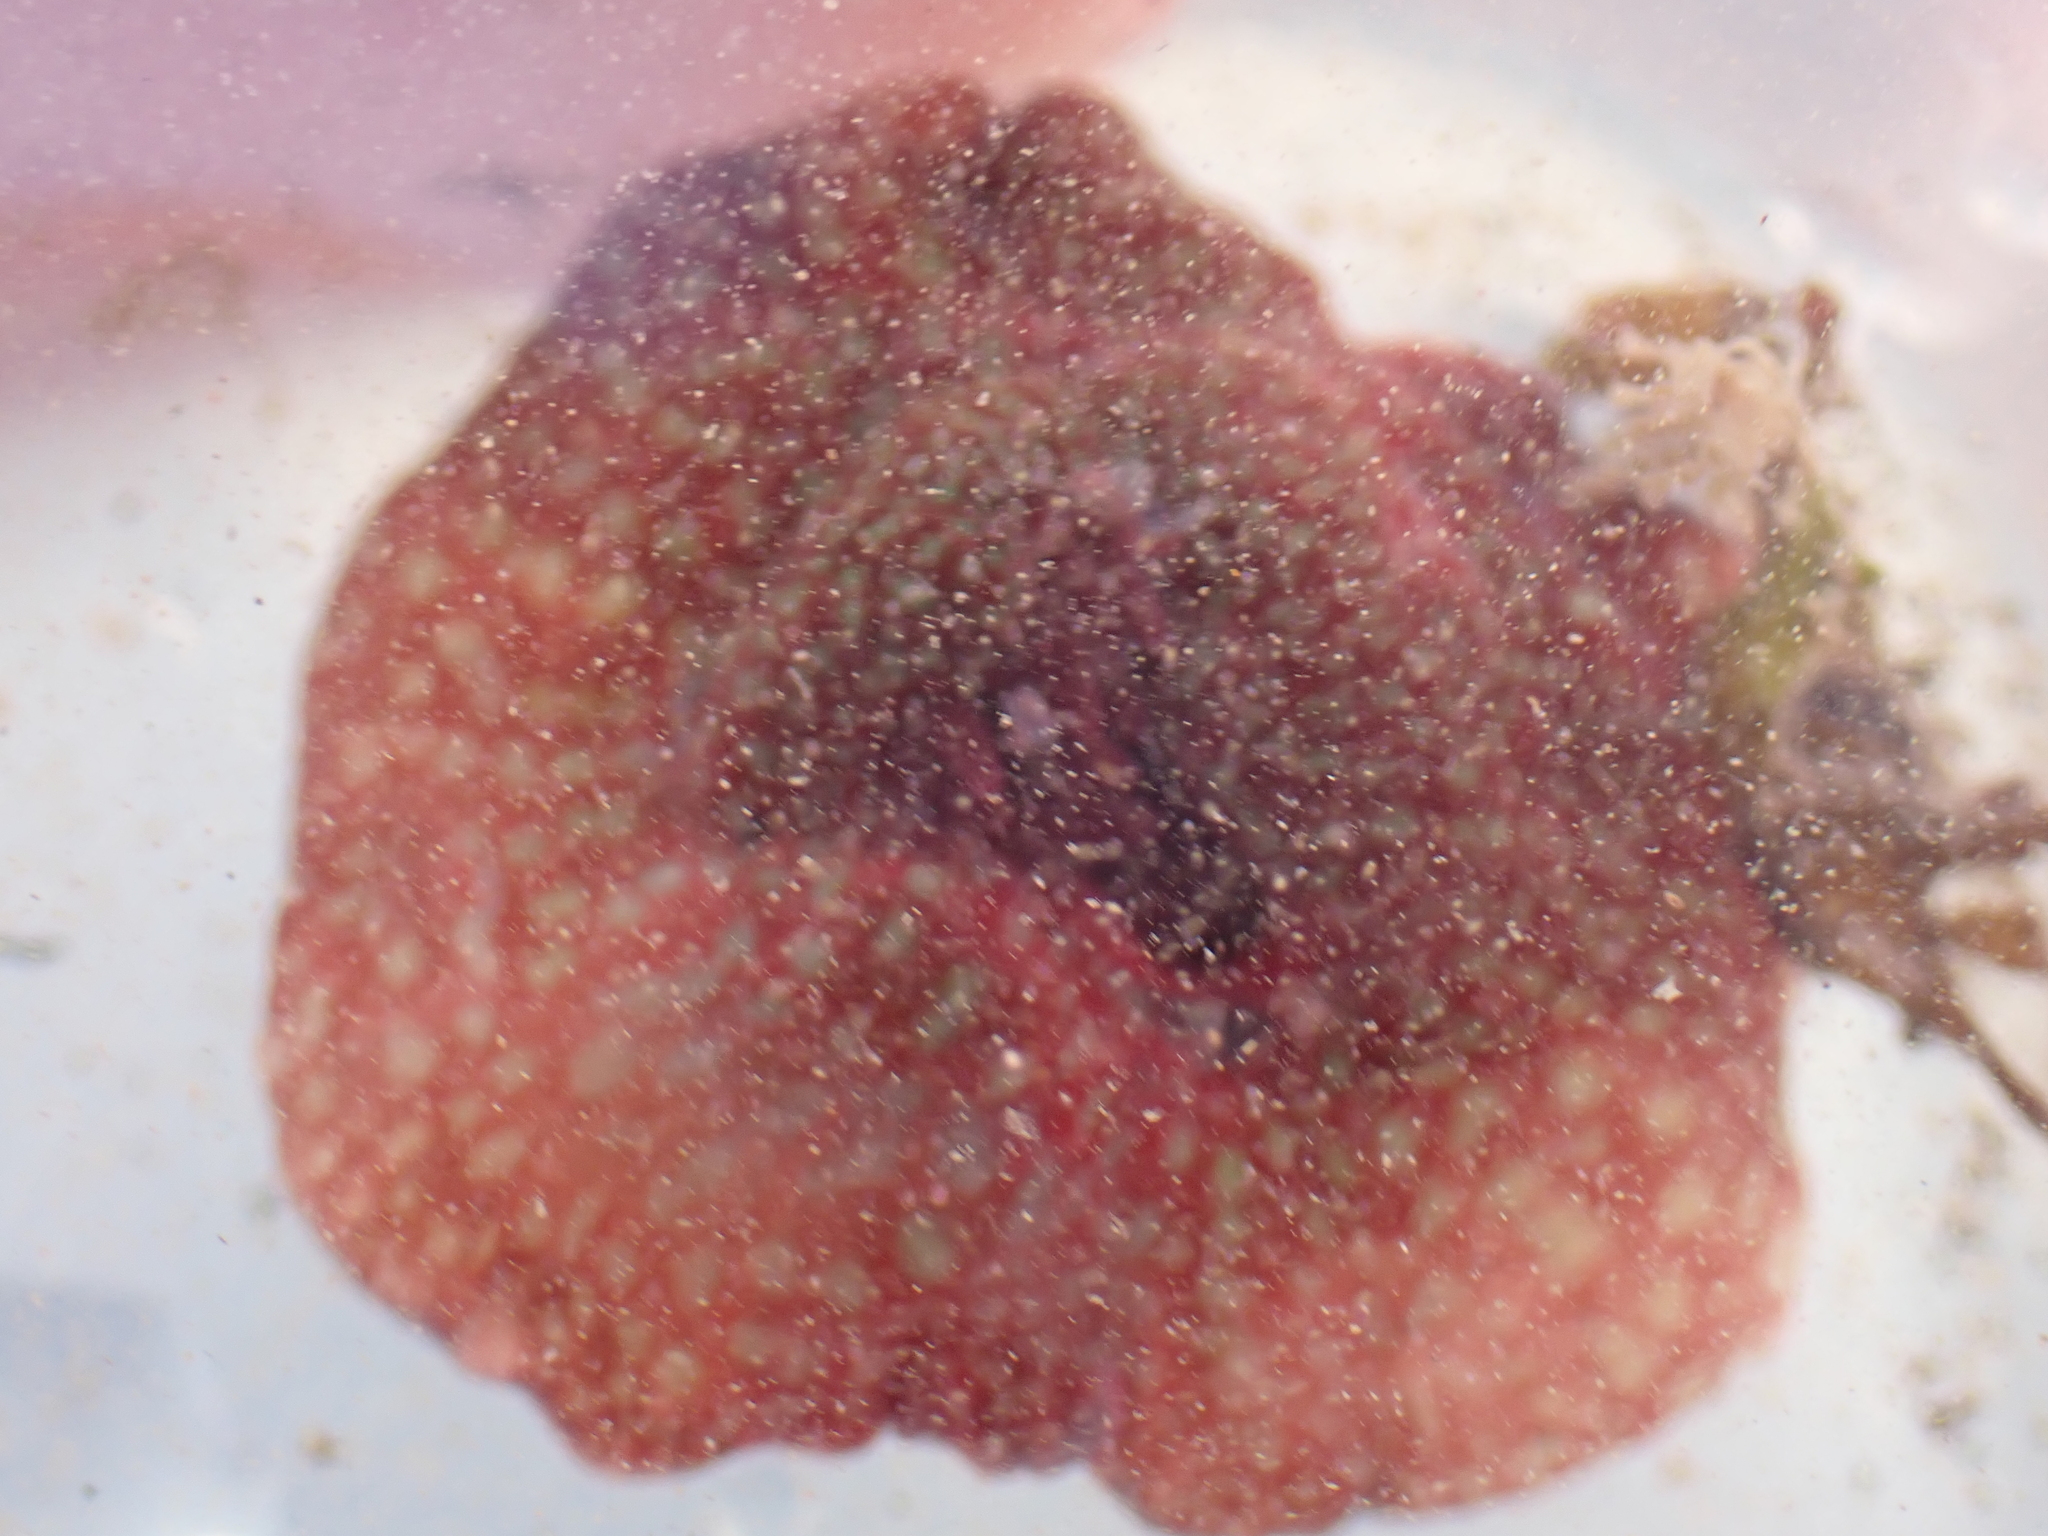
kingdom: Animalia
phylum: Cnidaria
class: Anthozoa
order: Actiniaria
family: Actiniidae
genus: Actinia
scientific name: Actinia fragacea
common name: Strawberry anemone
